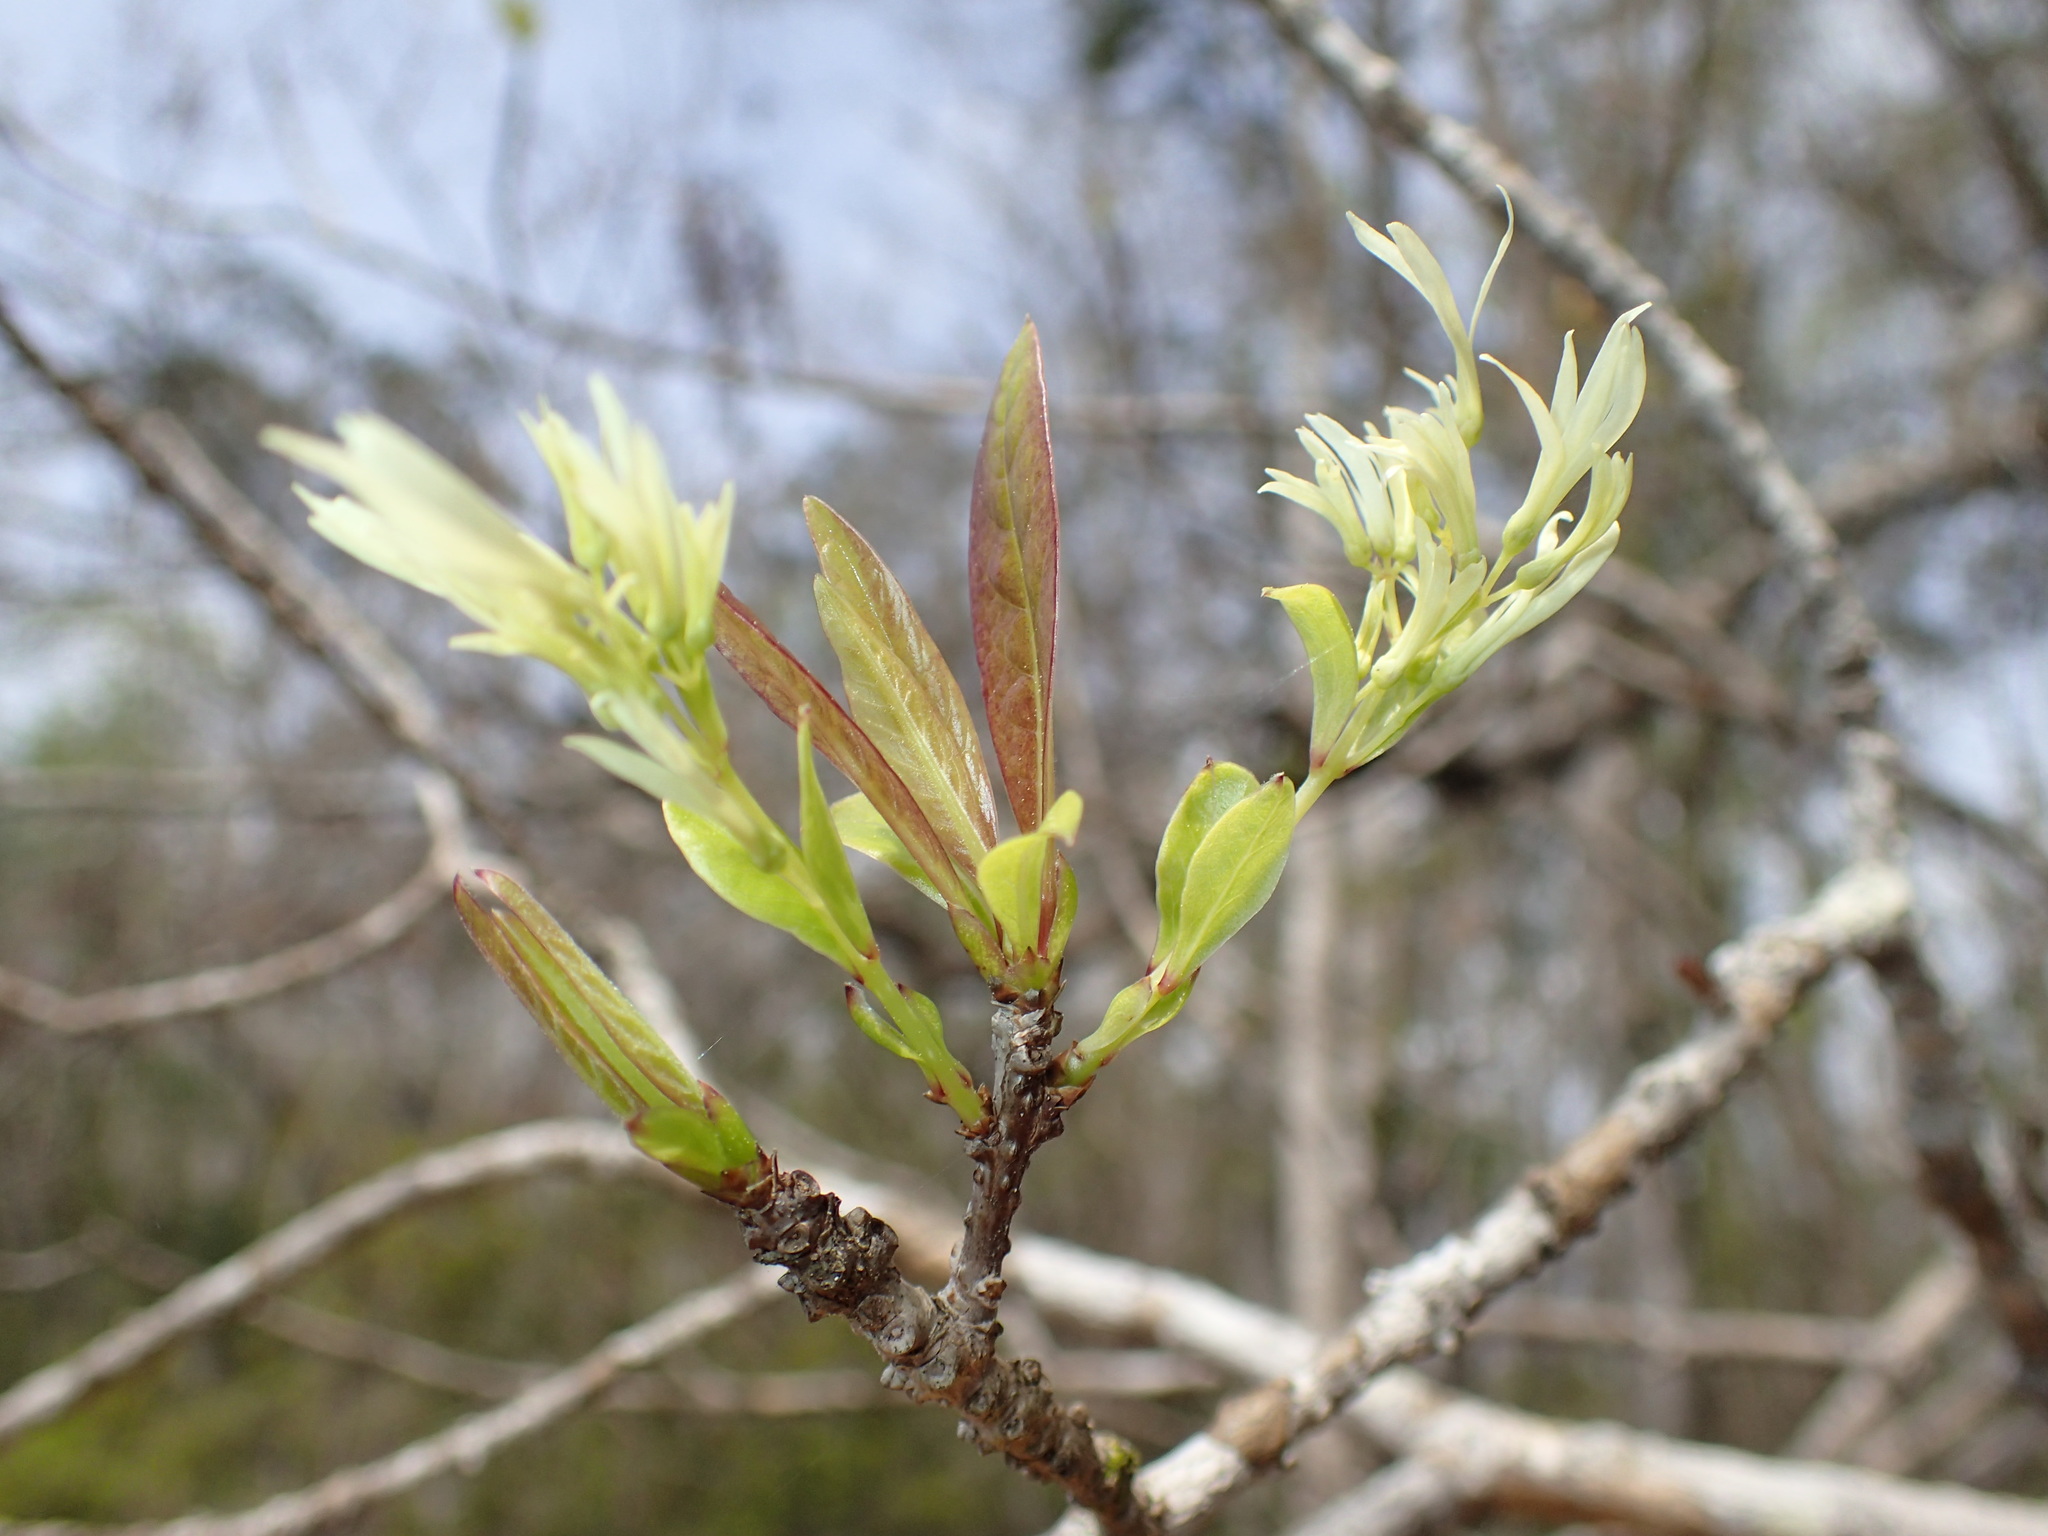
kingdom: Plantae
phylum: Tracheophyta
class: Magnoliopsida
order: Lamiales
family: Oleaceae
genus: Chionanthus
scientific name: Chionanthus virginicus
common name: American fringetree
